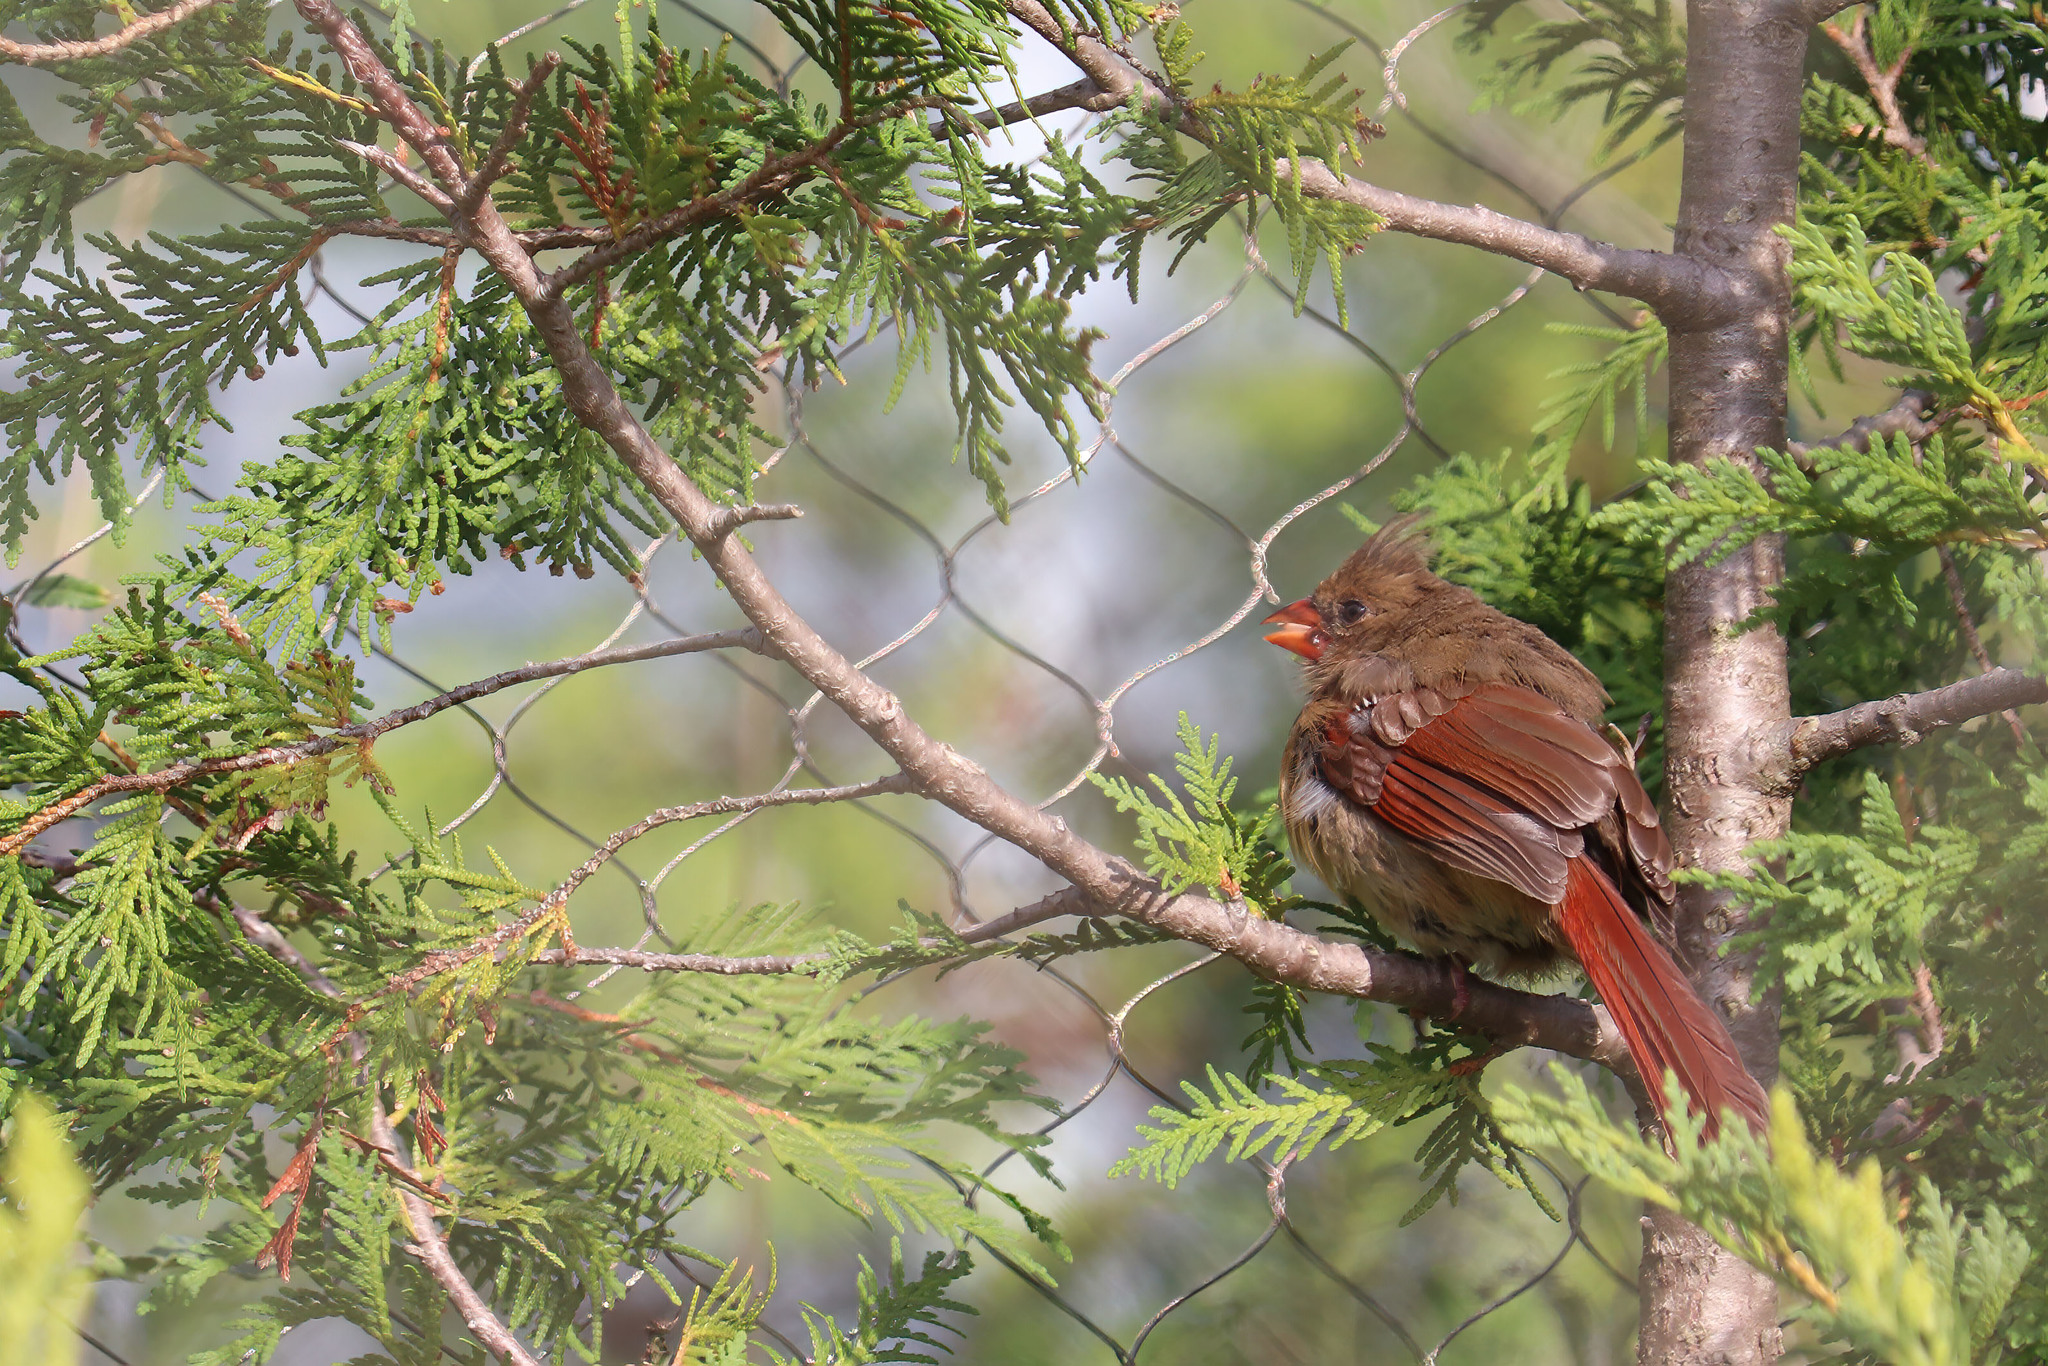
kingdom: Animalia
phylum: Chordata
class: Aves
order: Passeriformes
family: Cardinalidae
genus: Cardinalis
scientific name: Cardinalis cardinalis
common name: Northern cardinal
